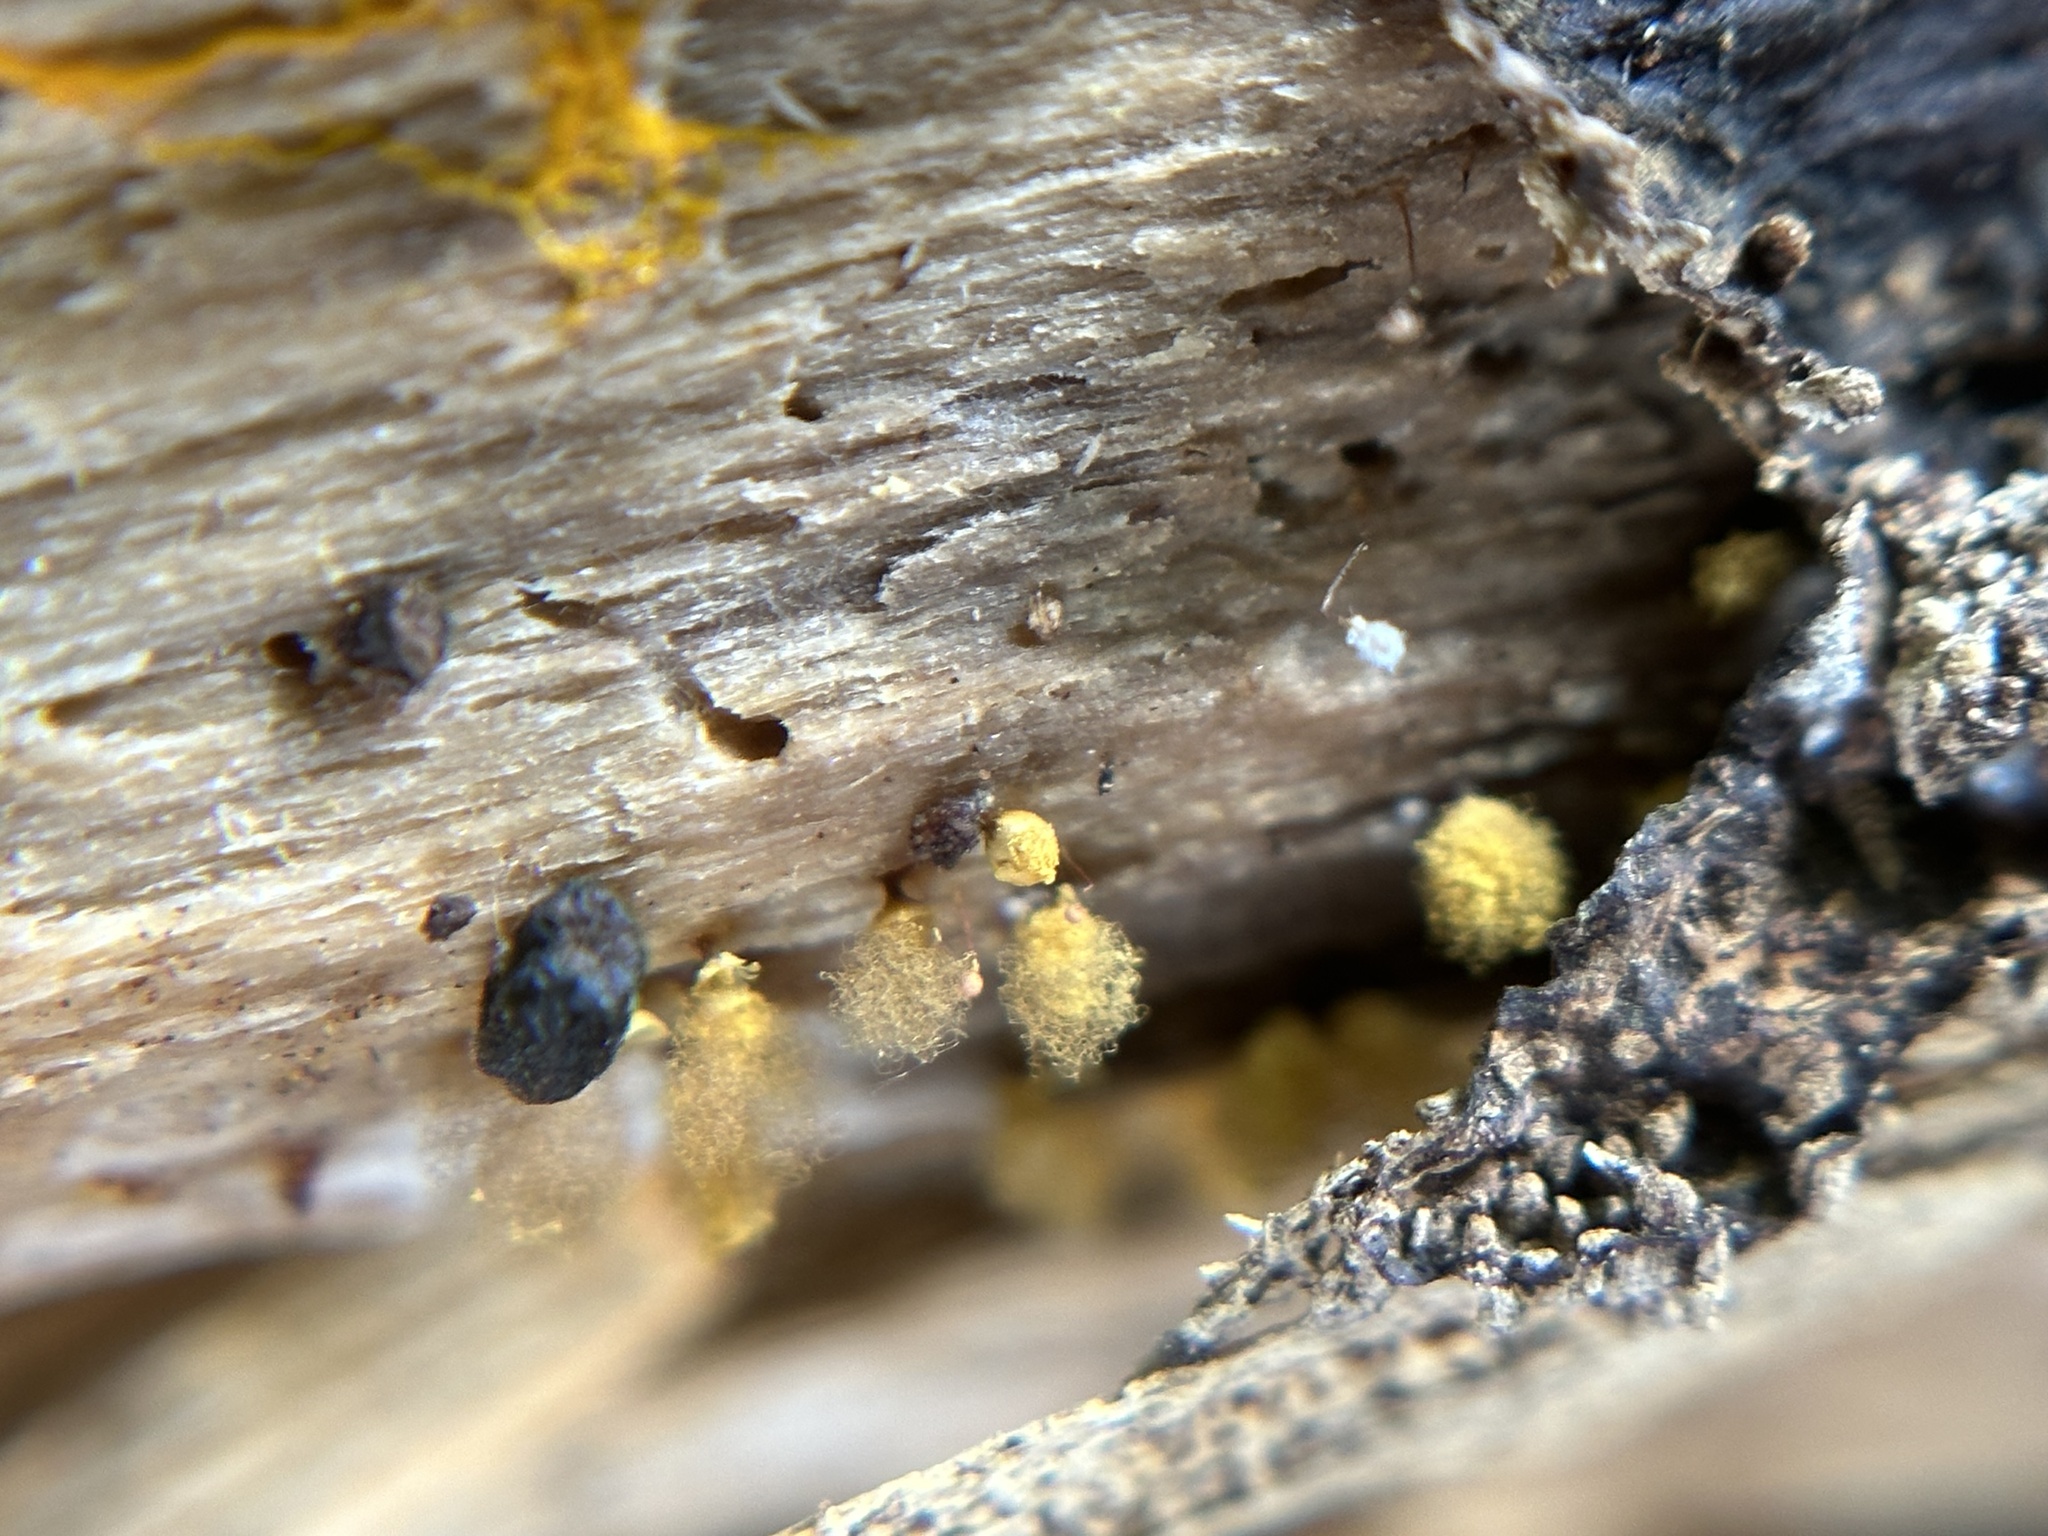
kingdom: Protozoa
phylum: Mycetozoa
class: Myxomycetes
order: Trichiales
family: Arcyriaceae
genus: Hemitrichia
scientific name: Hemitrichia calyculata
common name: Push pin slime mold
